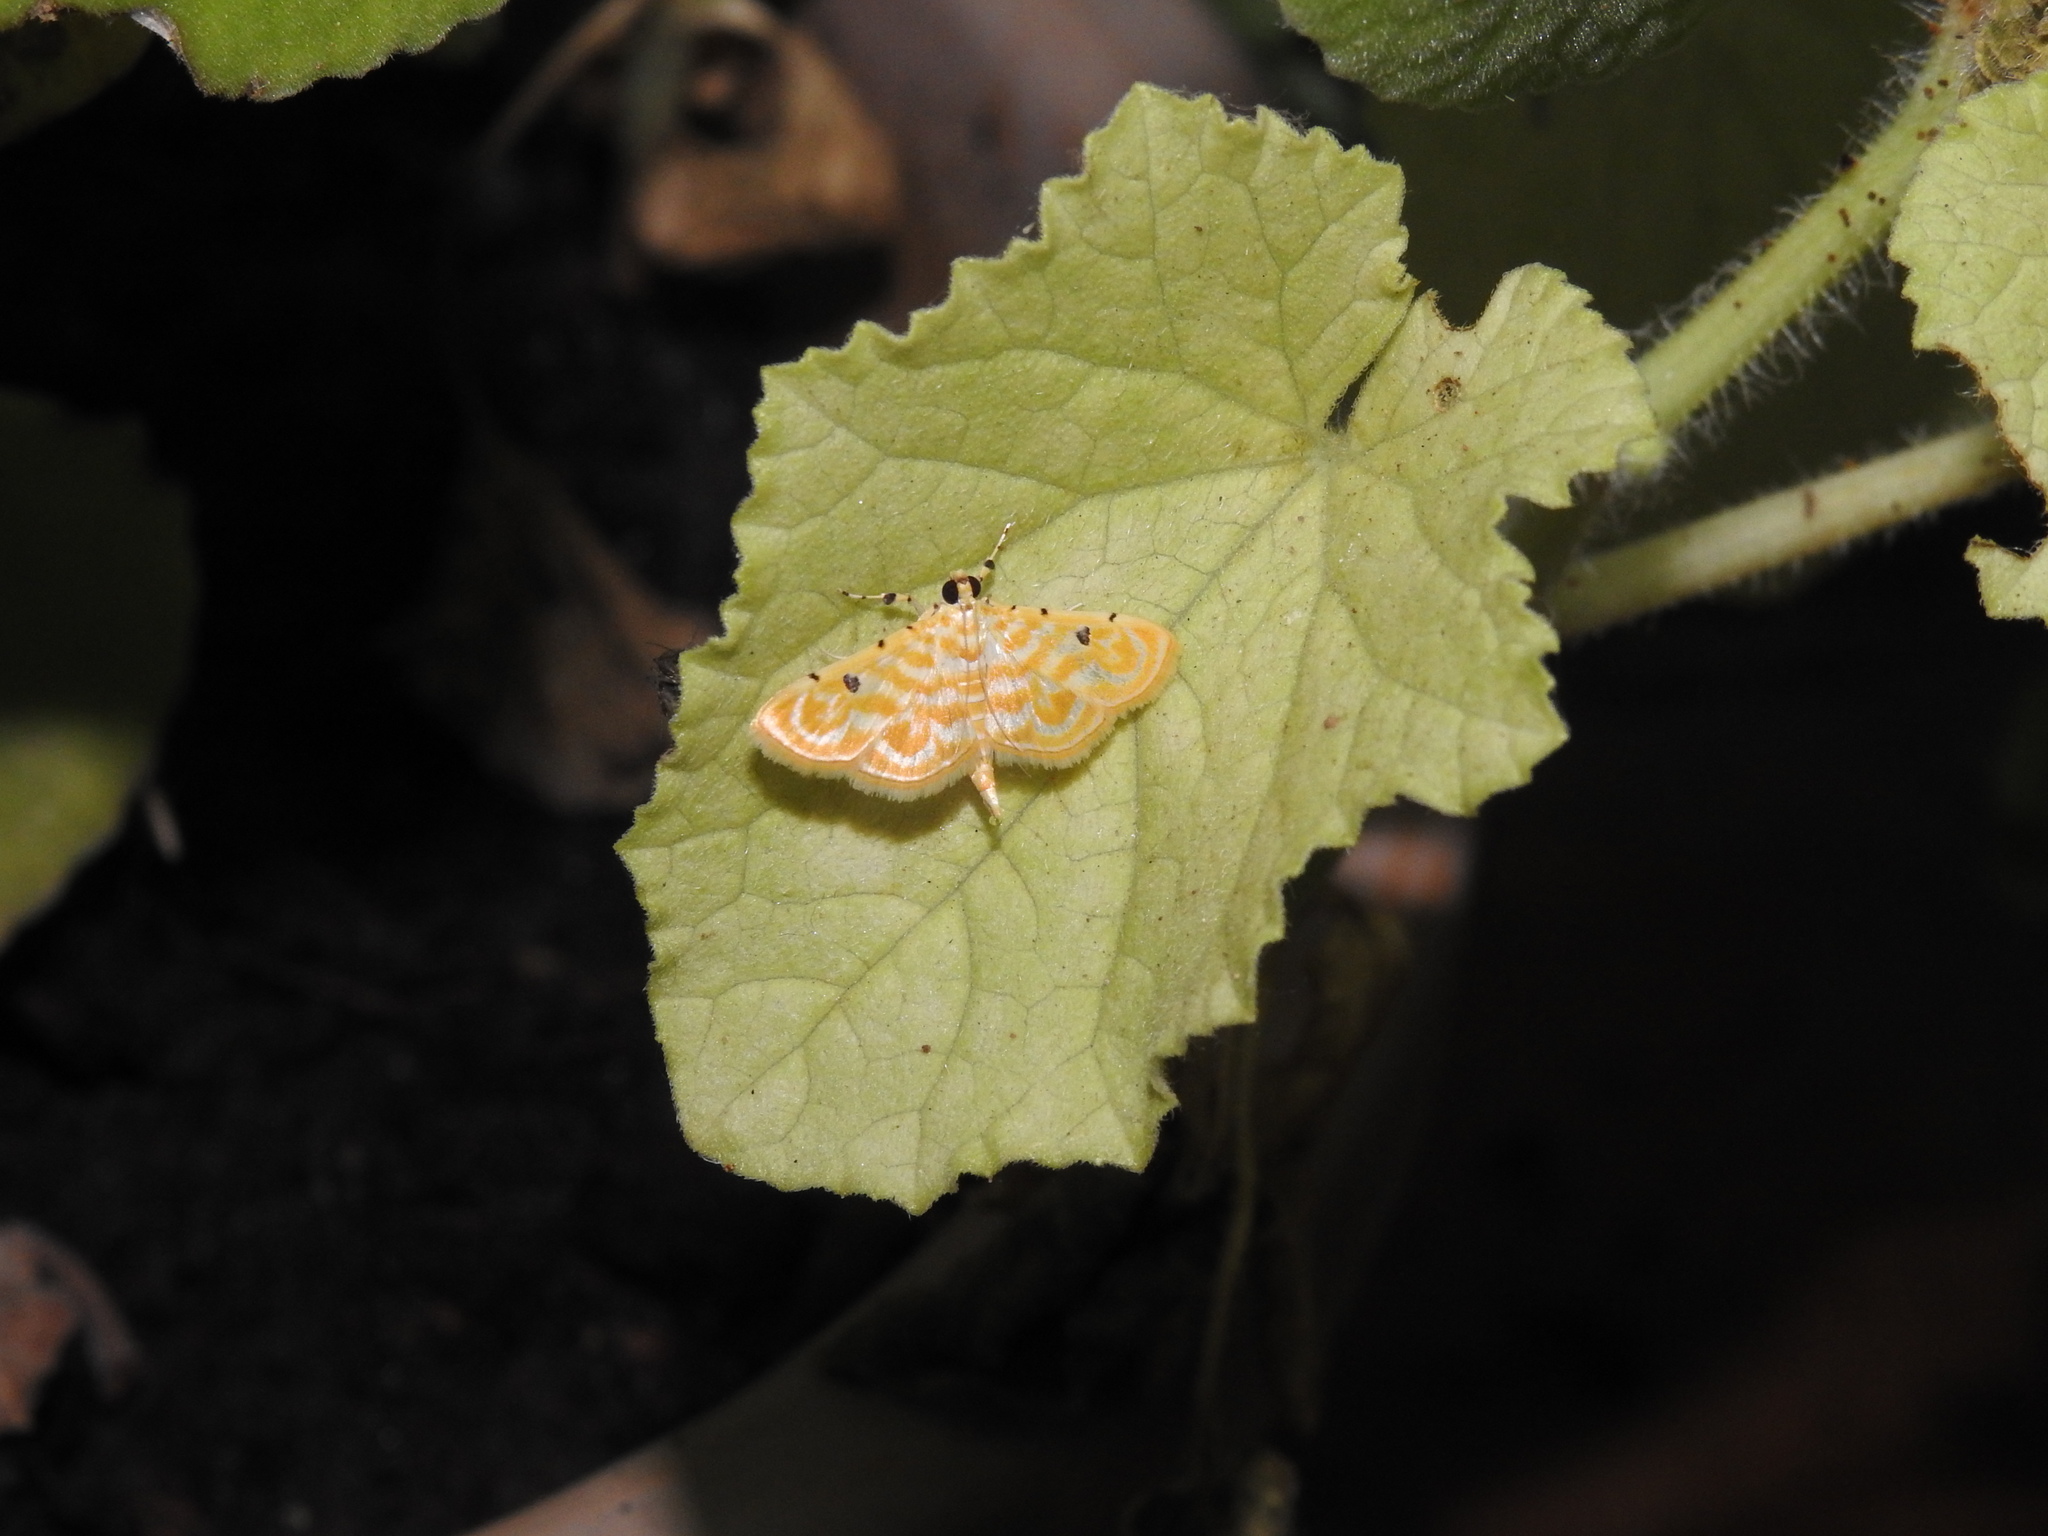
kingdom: Animalia
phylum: Arthropoda
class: Insecta
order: Lepidoptera
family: Crambidae
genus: Notarcha
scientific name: Notarcha aurolinealis
